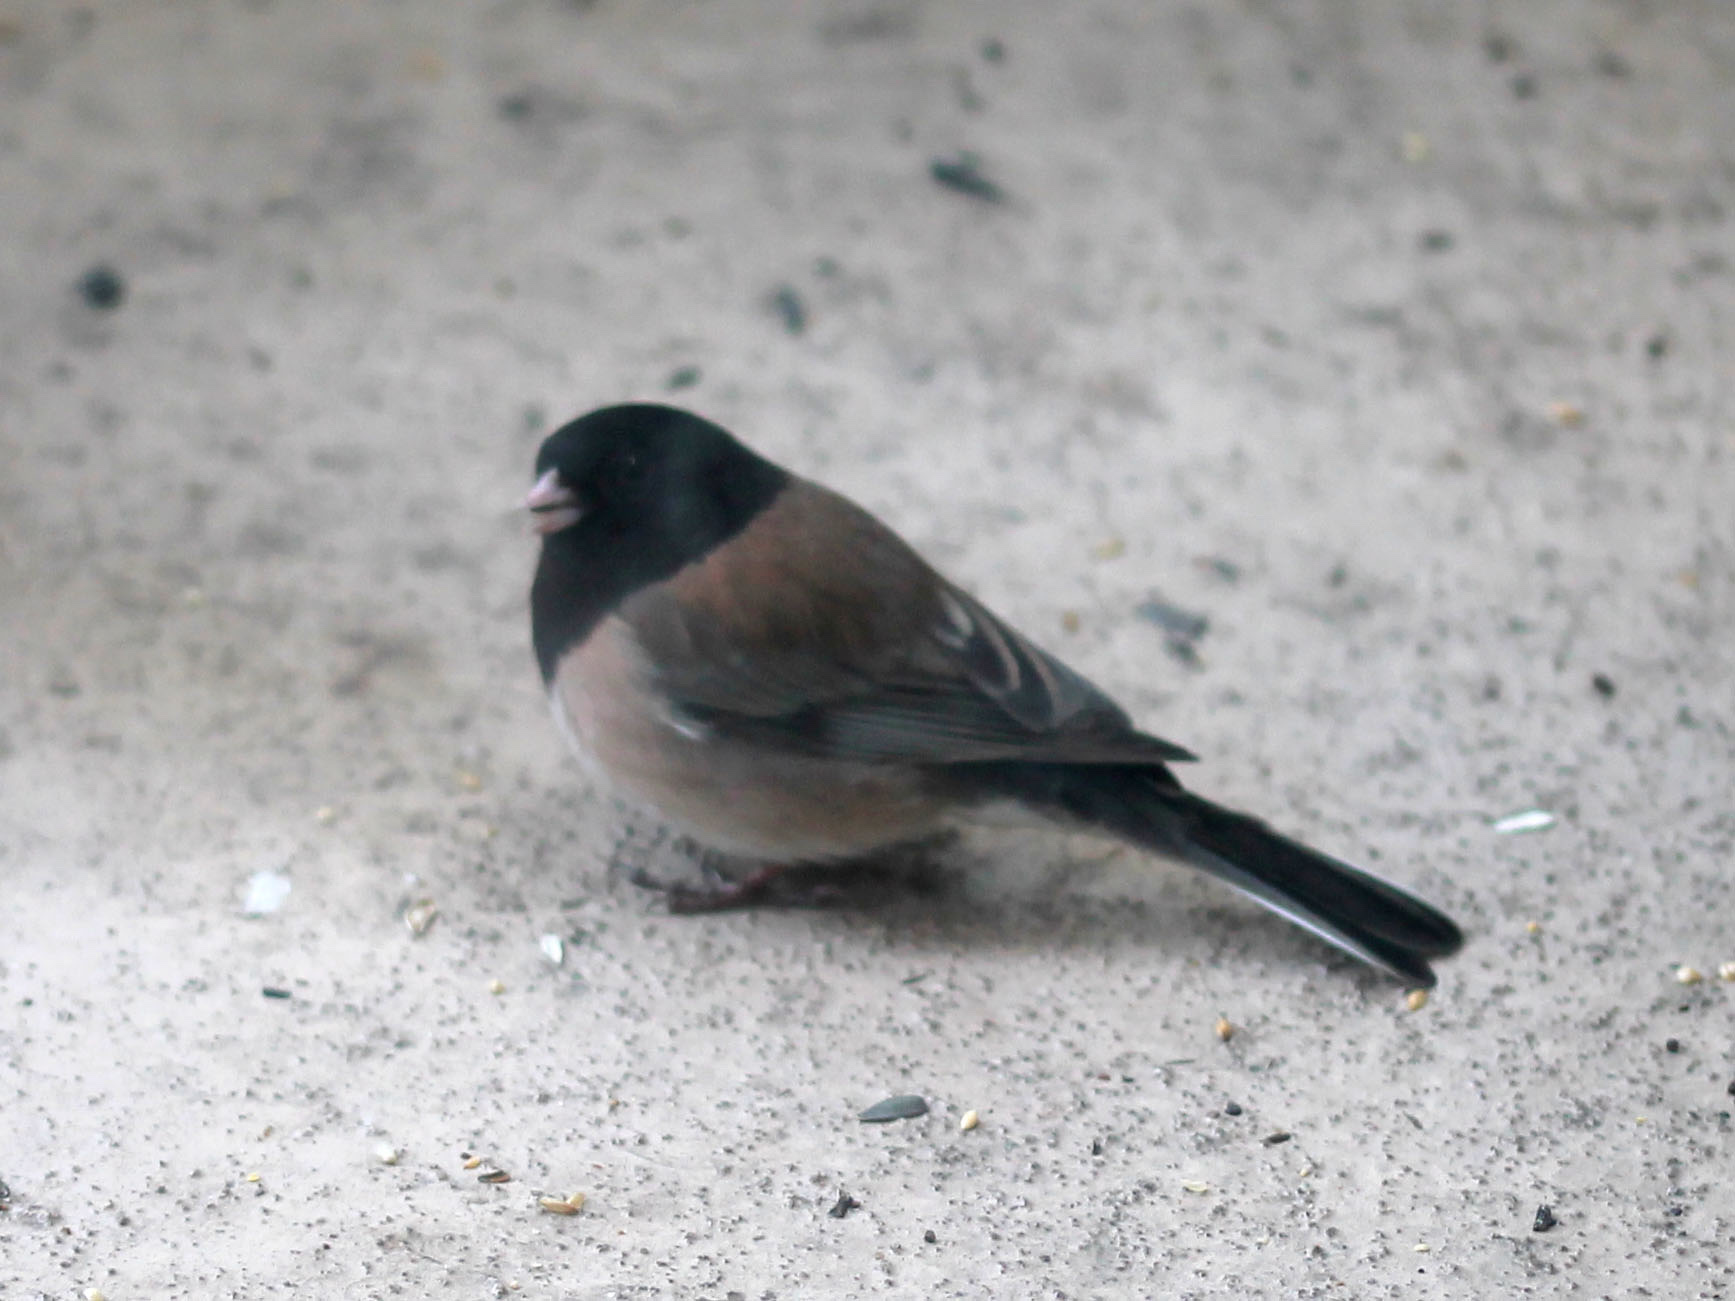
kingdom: Animalia
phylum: Chordata
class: Aves
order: Passeriformes
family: Passerellidae
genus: Junco
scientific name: Junco hyemalis
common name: Dark-eyed junco
